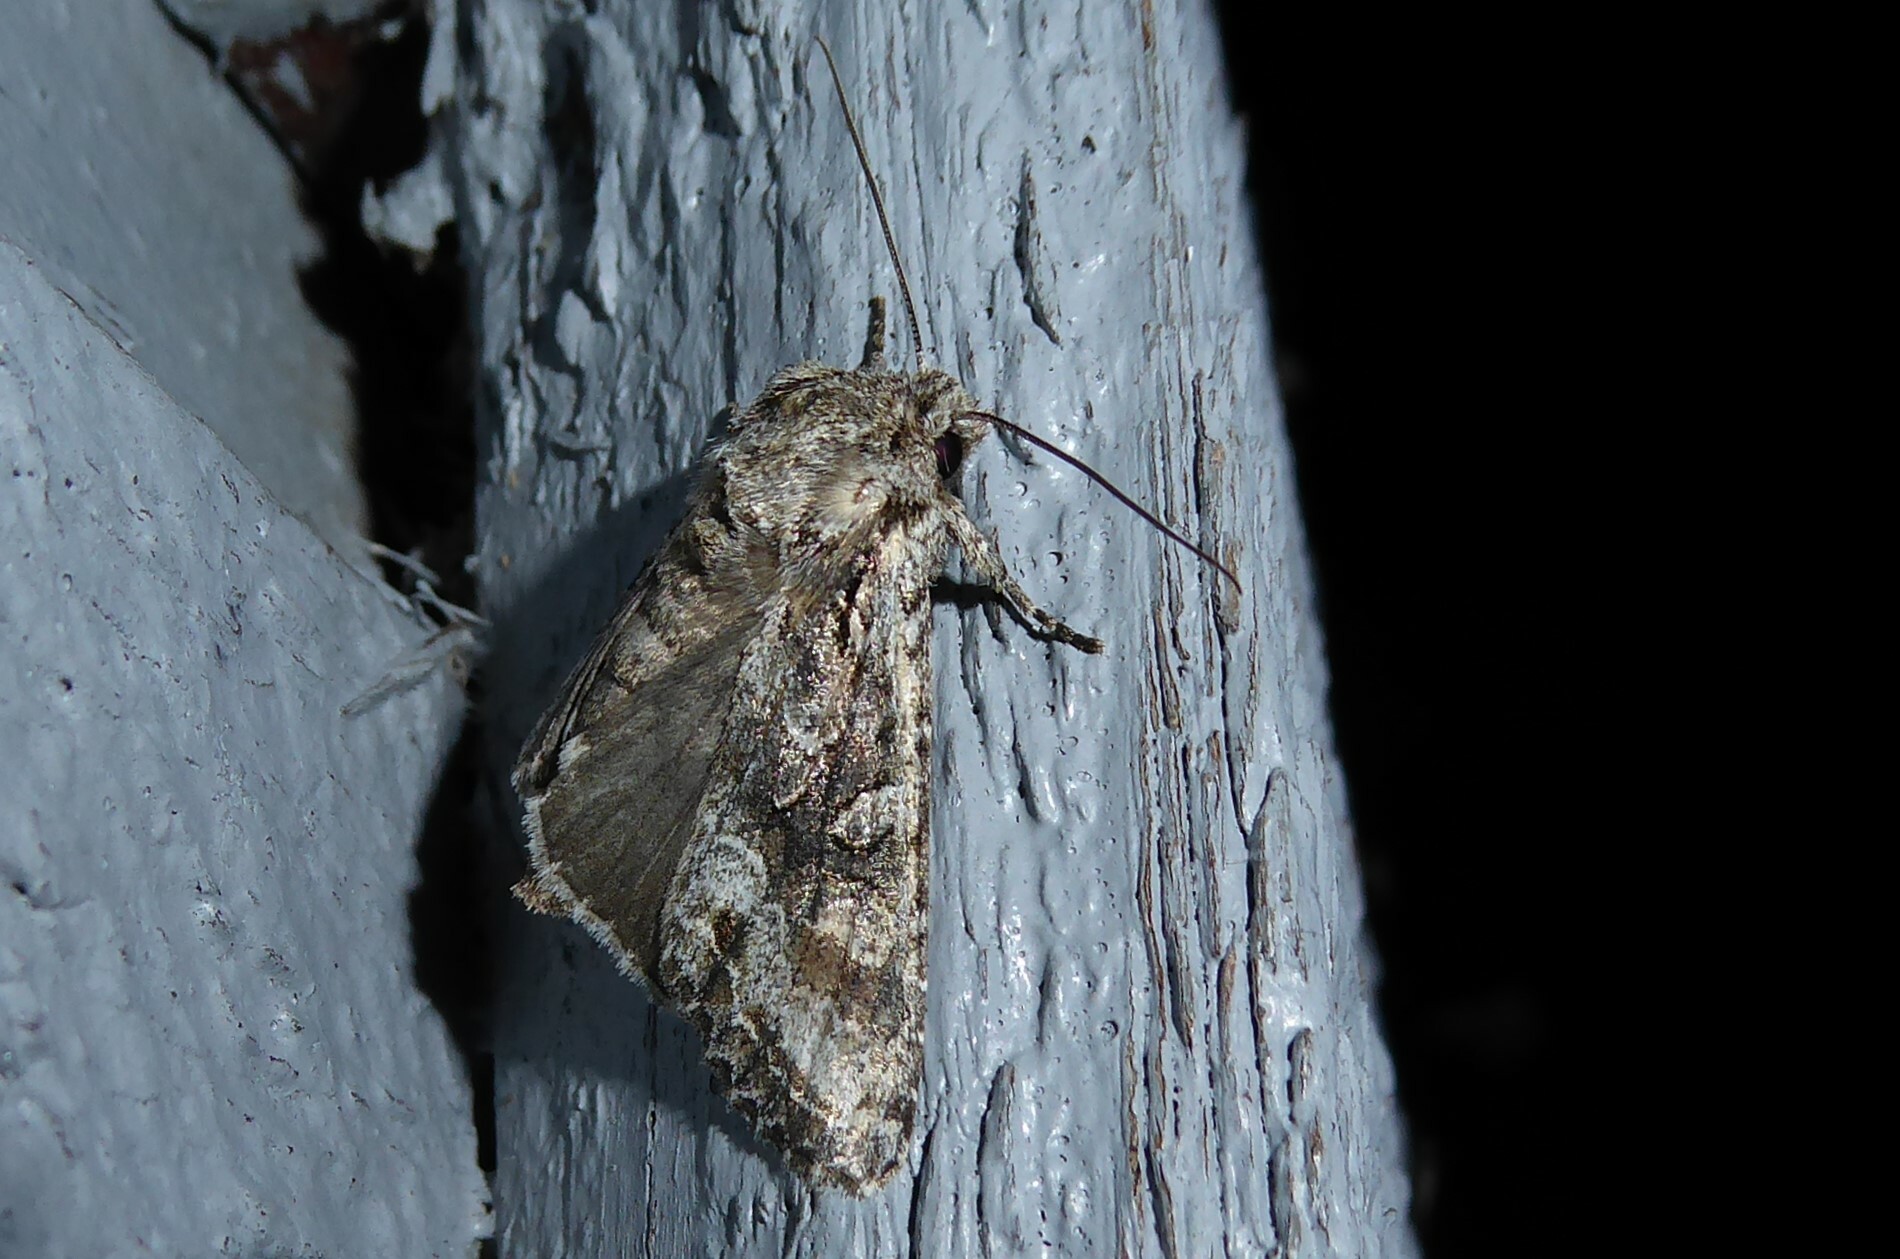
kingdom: Animalia
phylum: Arthropoda
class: Insecta
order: Lepidoptera
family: Noctuidae
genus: Ichneutica
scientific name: Ichneutica mutans
